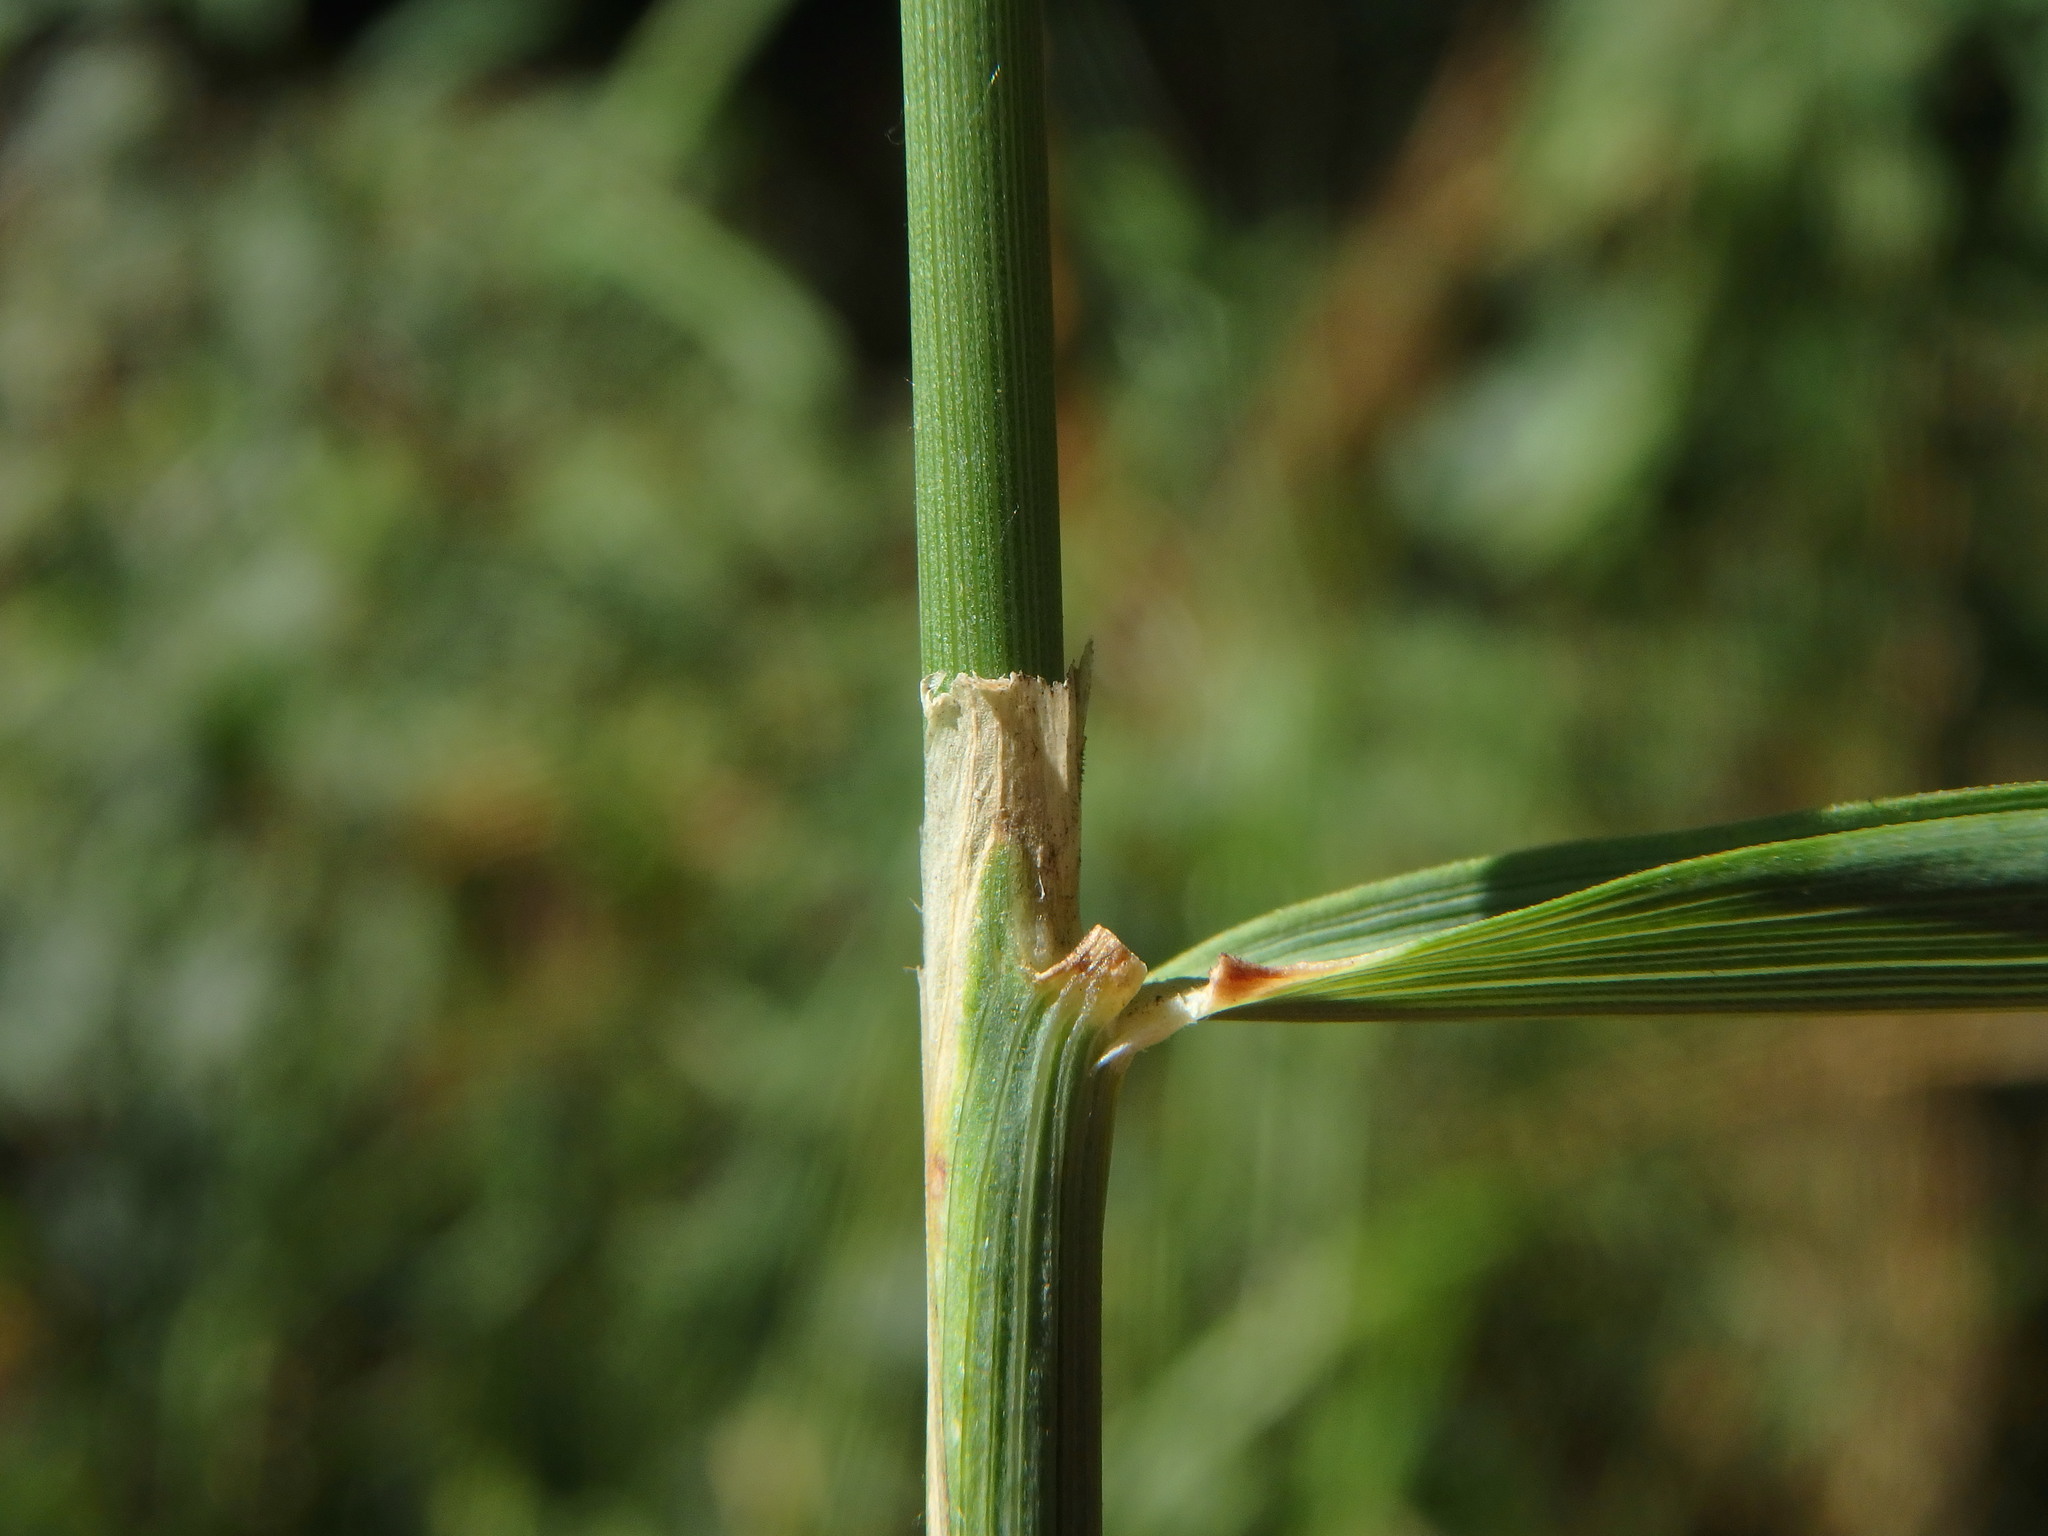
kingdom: Plantae
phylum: Tracheophyta
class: Liliopsida
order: Poales
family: Poaceae
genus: Calamagrostis
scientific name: Calamagrostis epigejos
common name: Wood small-reed
